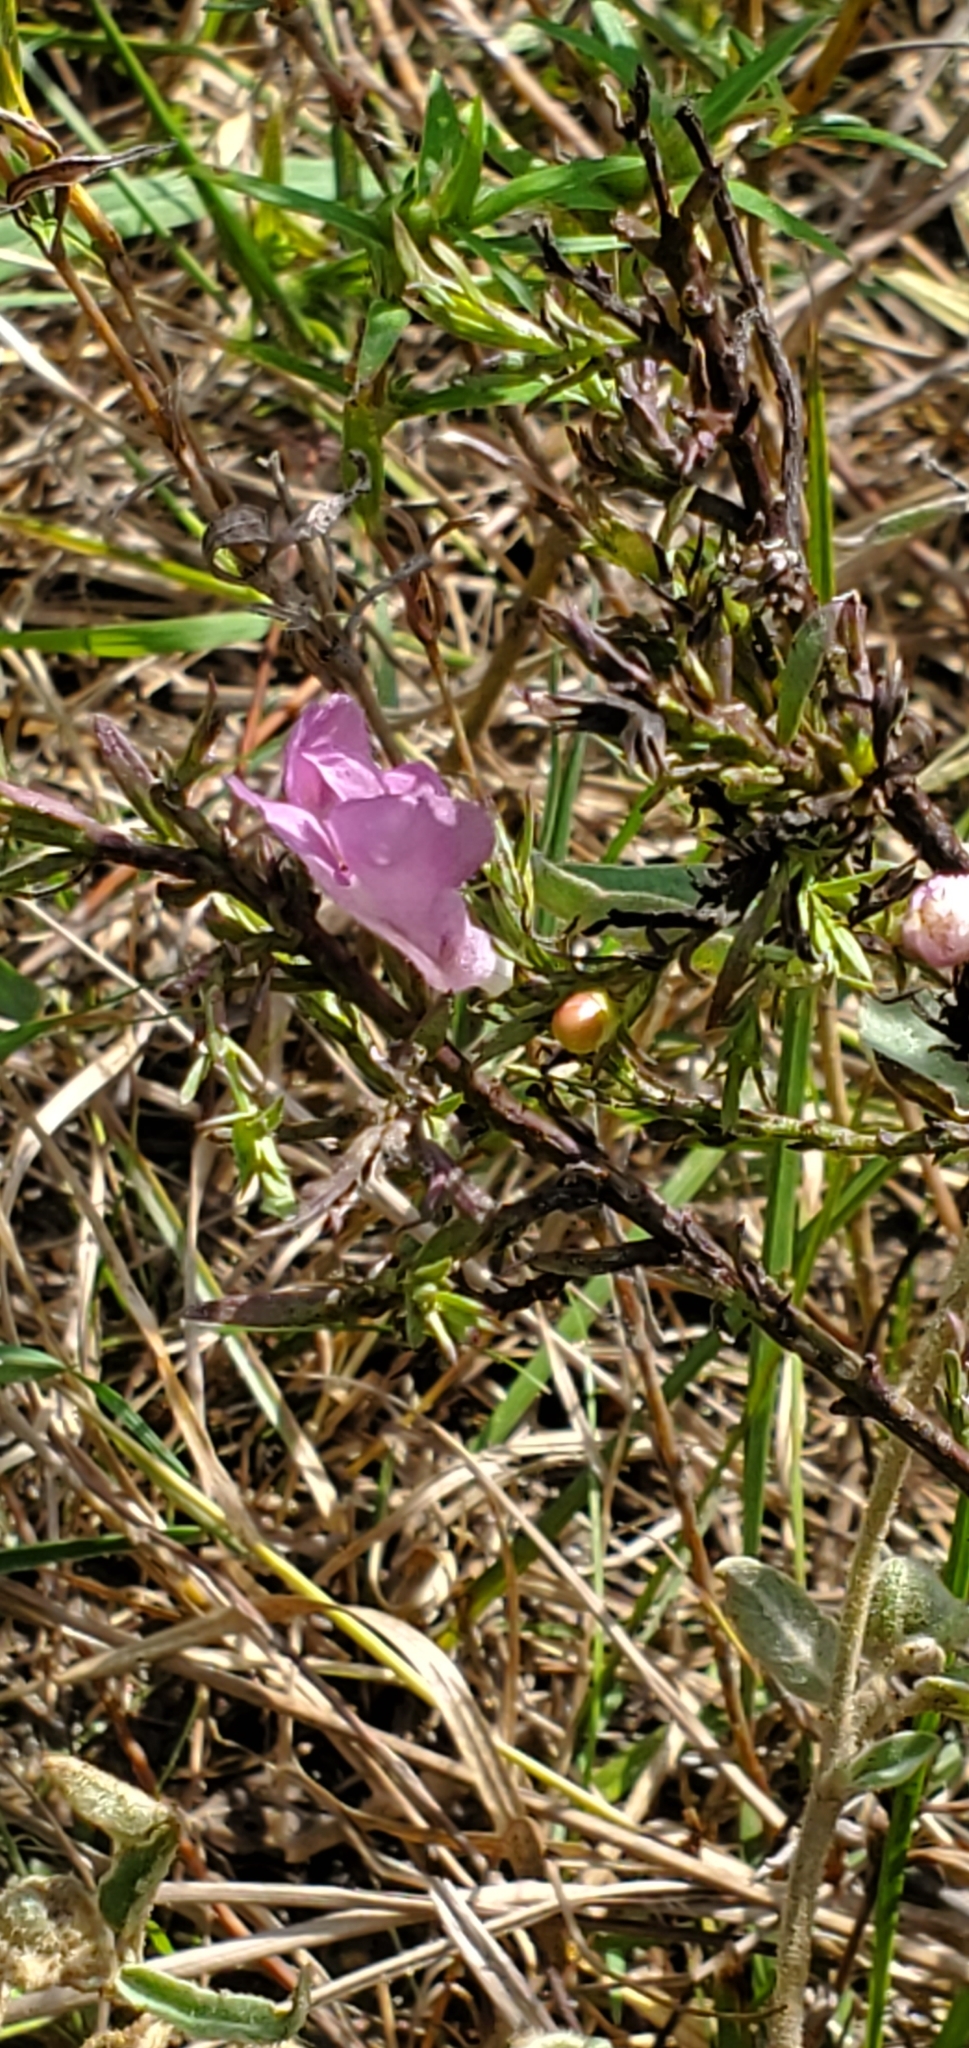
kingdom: Plantae
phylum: Tracheophyta
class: Magnoliopsida
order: Lamiales
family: Orobanchaceae
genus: Agalinis
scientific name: Agalinis heterophylla
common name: Prairie agalinis
